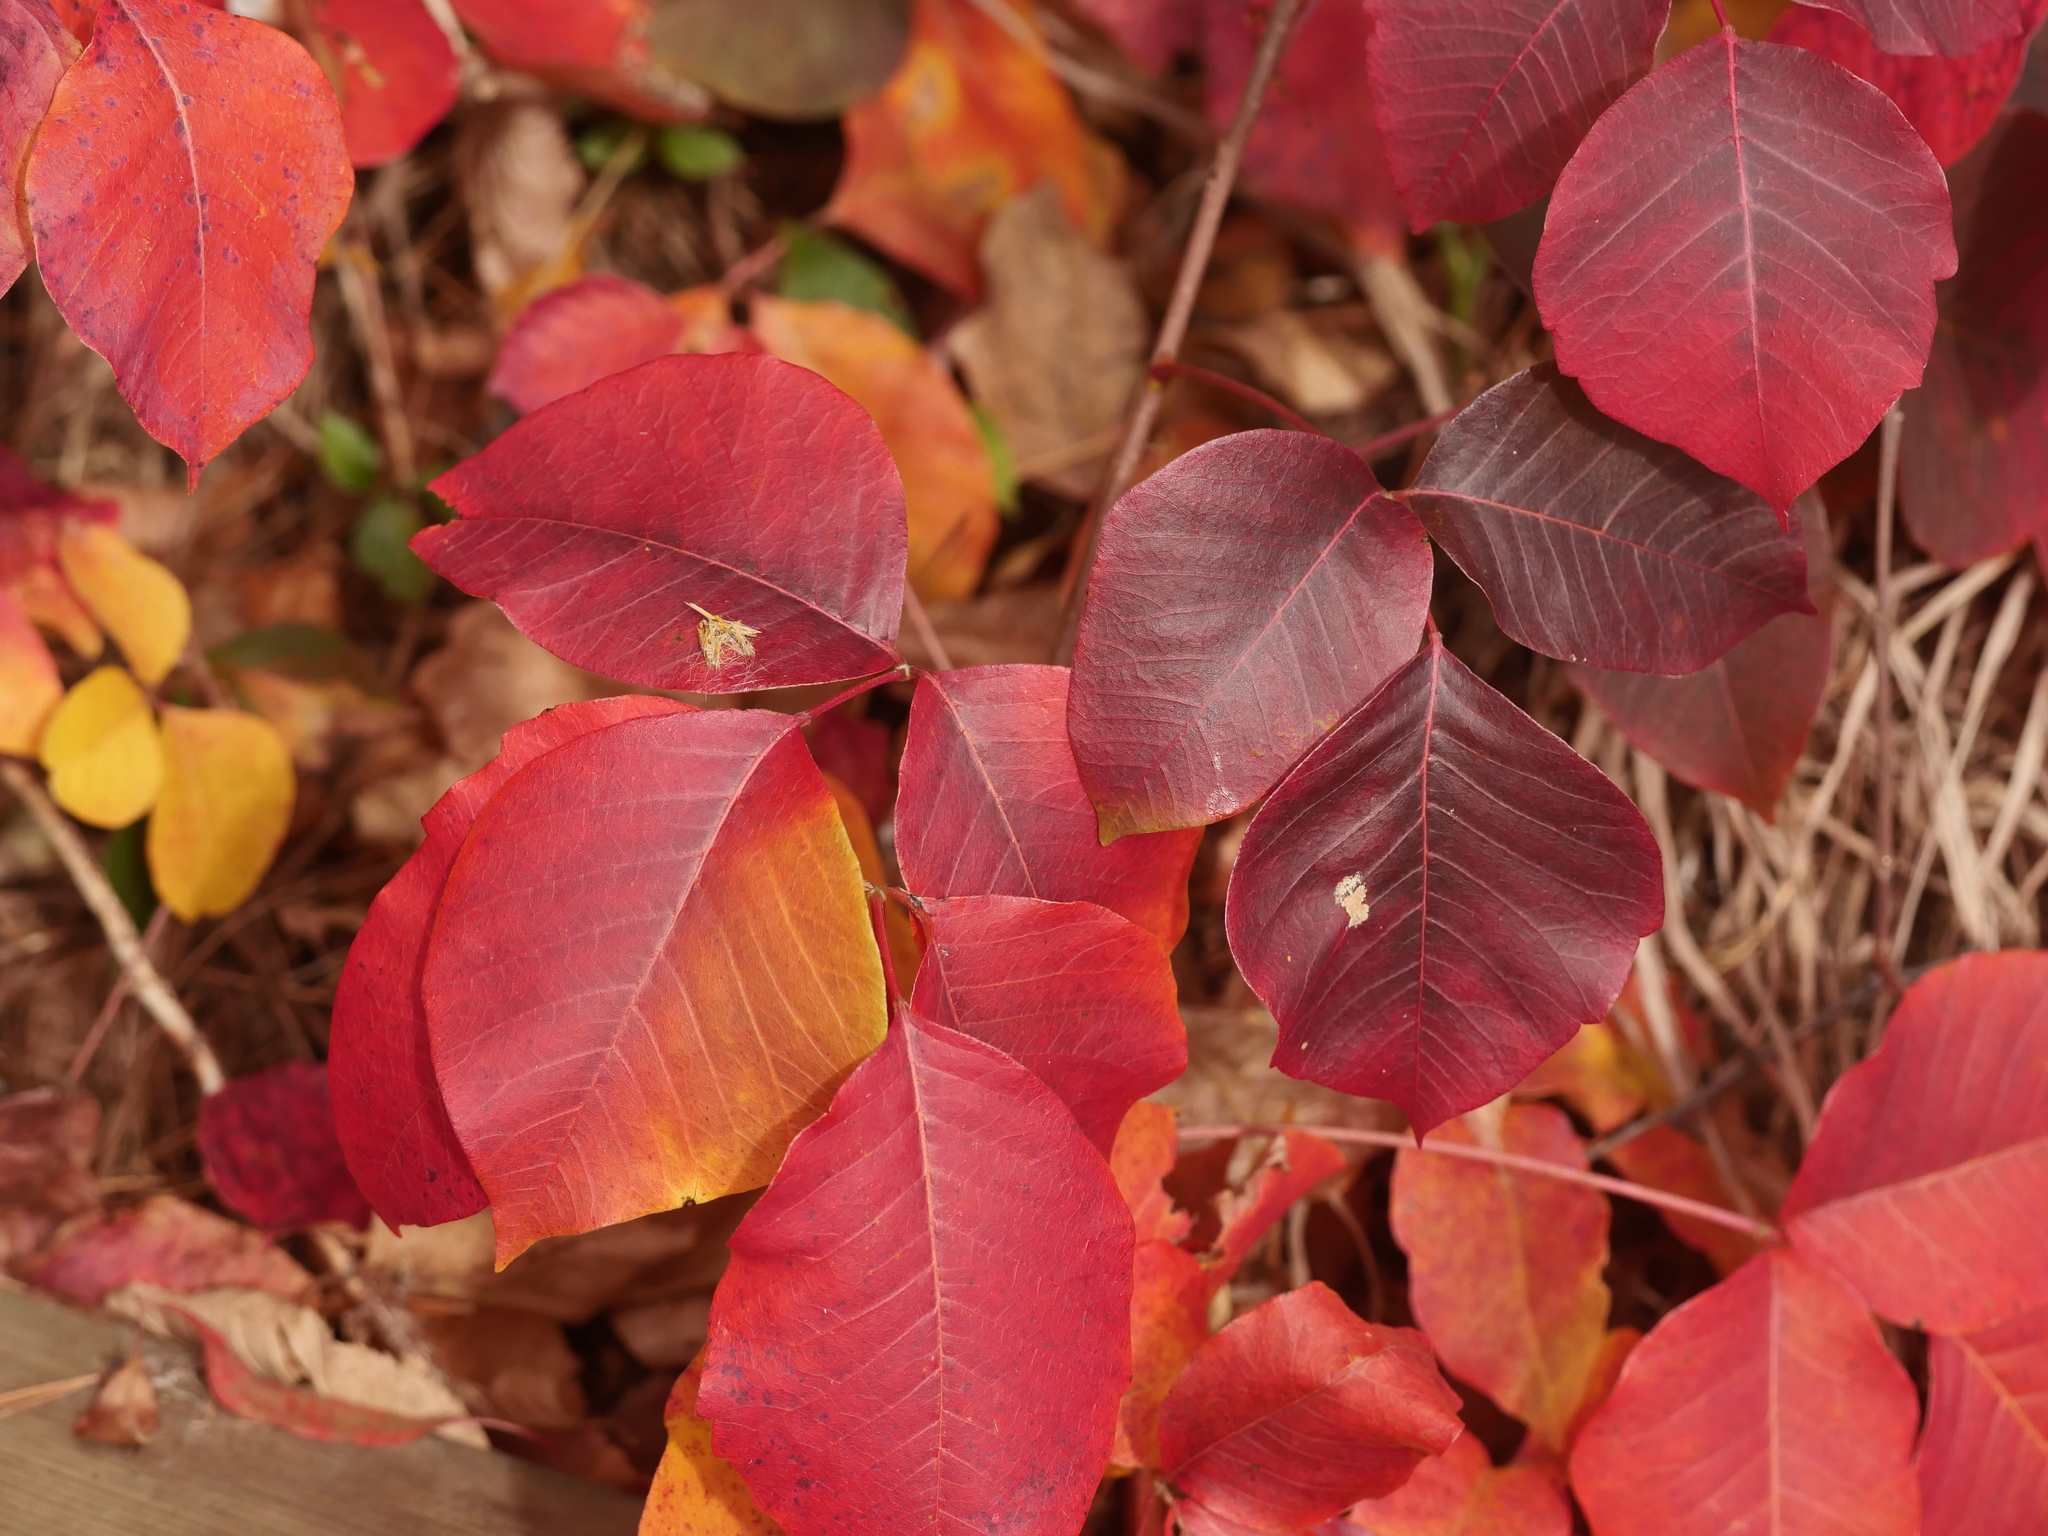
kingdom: Plantae
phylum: Tracheophyta
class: Magnoliopsida
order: Sapindales
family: Anacardiaceae
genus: Toxicodendron
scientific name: Toxicodendron radicans
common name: Poison ivy
